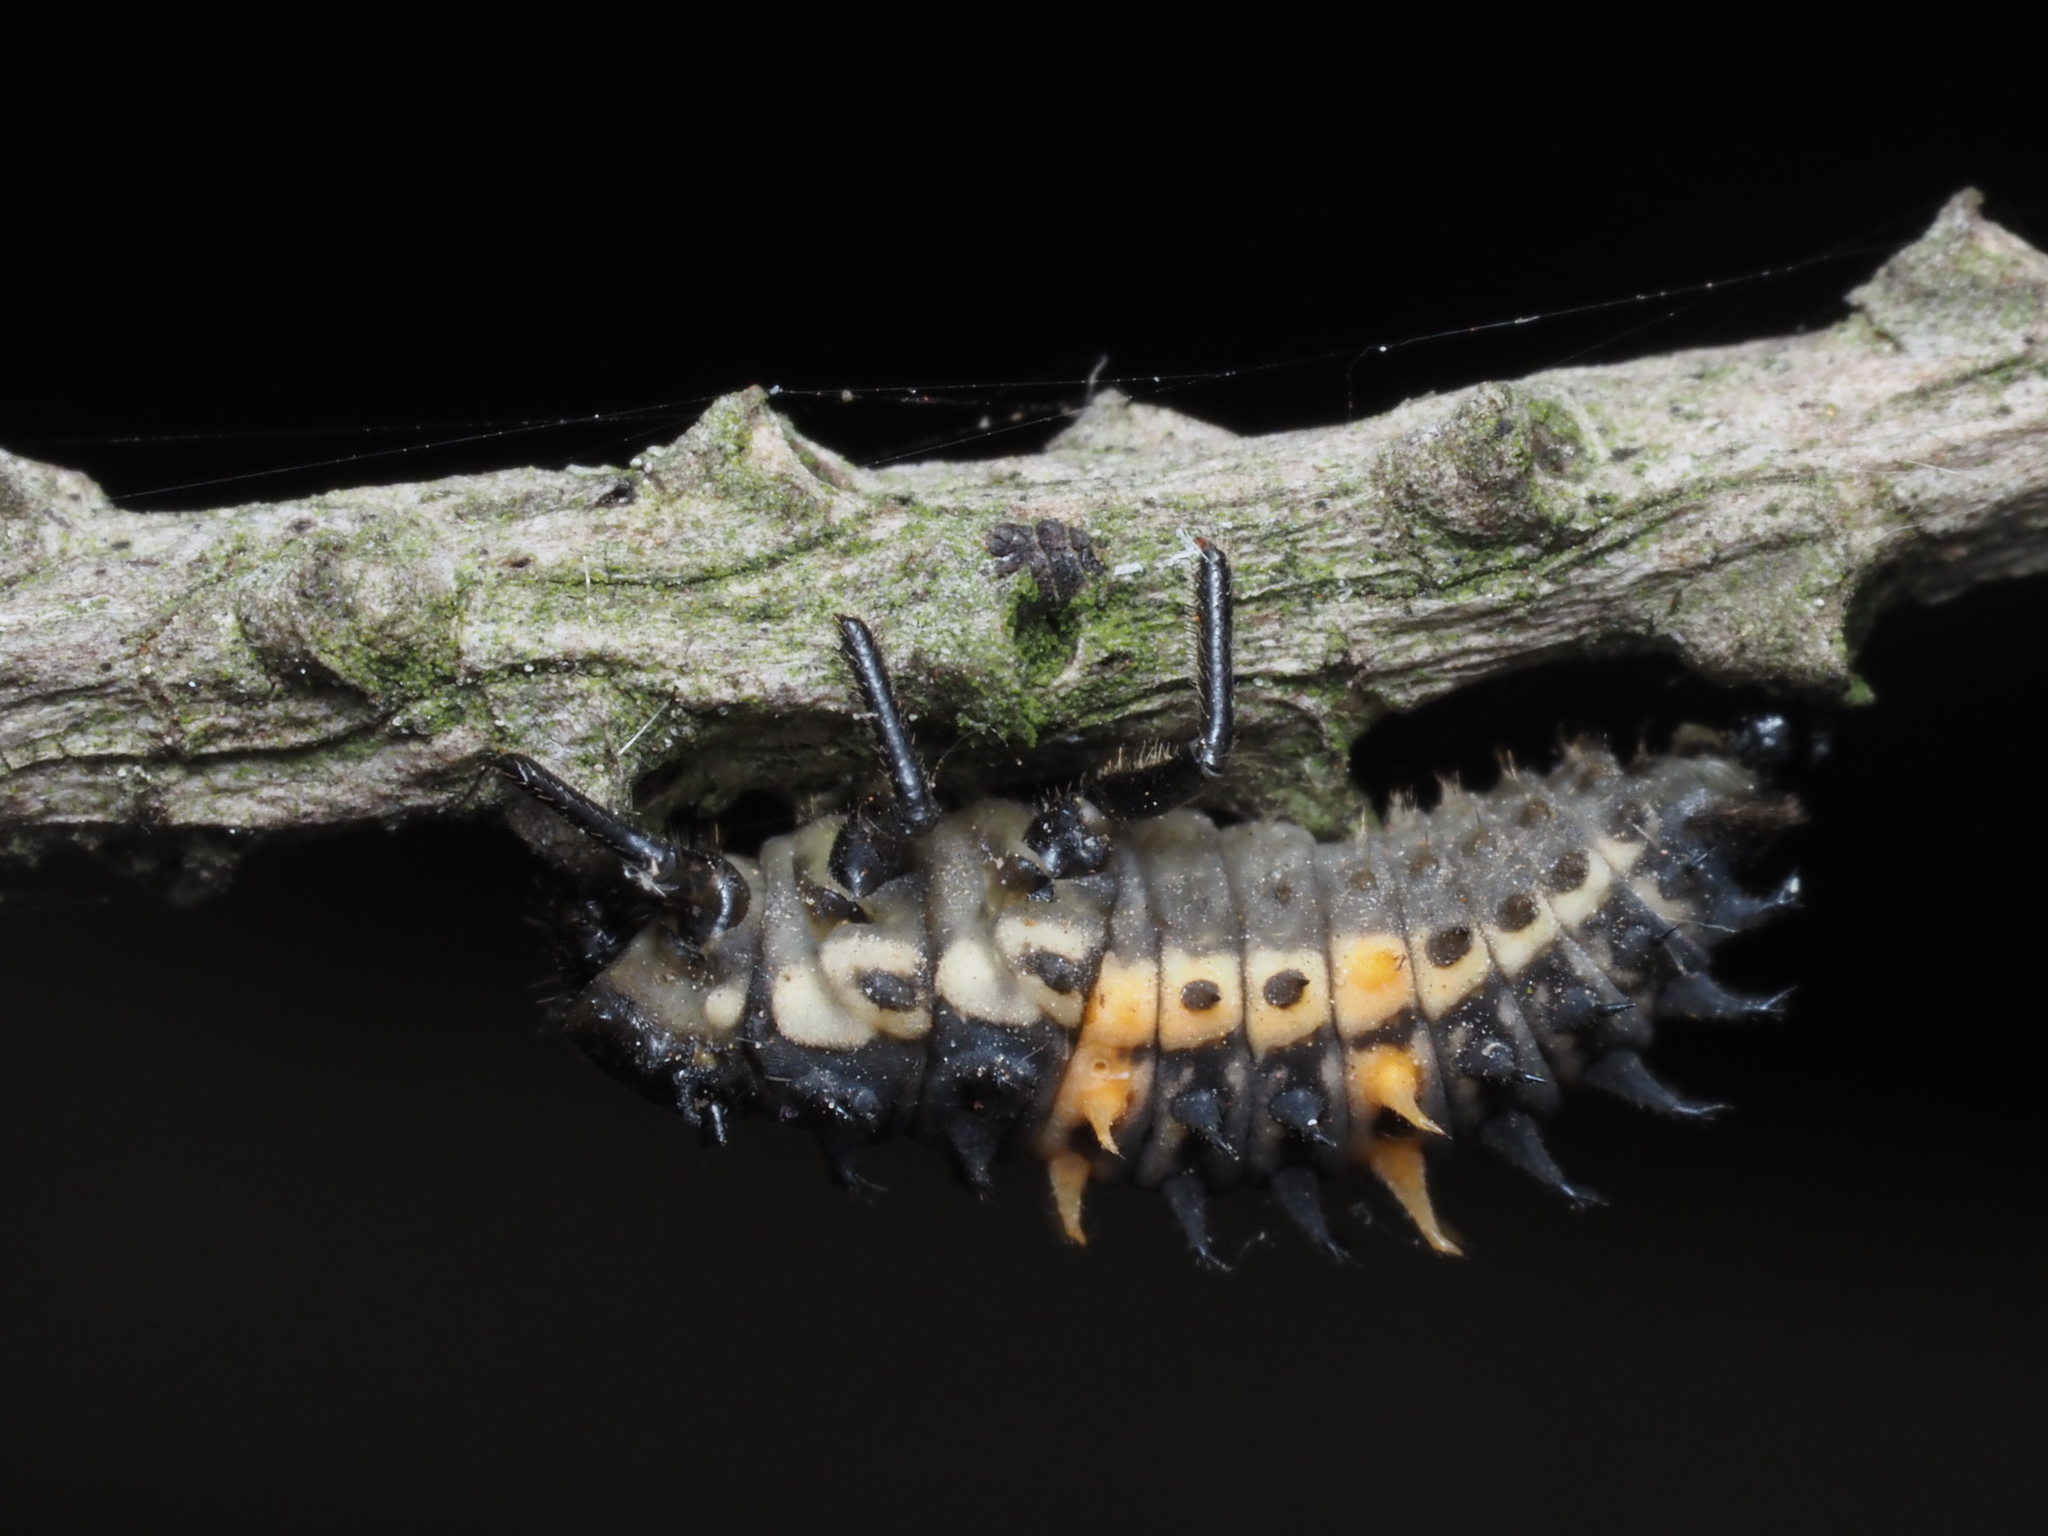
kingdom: Animalia
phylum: Arthropoda
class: Insecta
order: Coleoptera
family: Coccinellidae
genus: Harmonia
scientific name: Harmonia conformis
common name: Common spotted ladybird beetle
